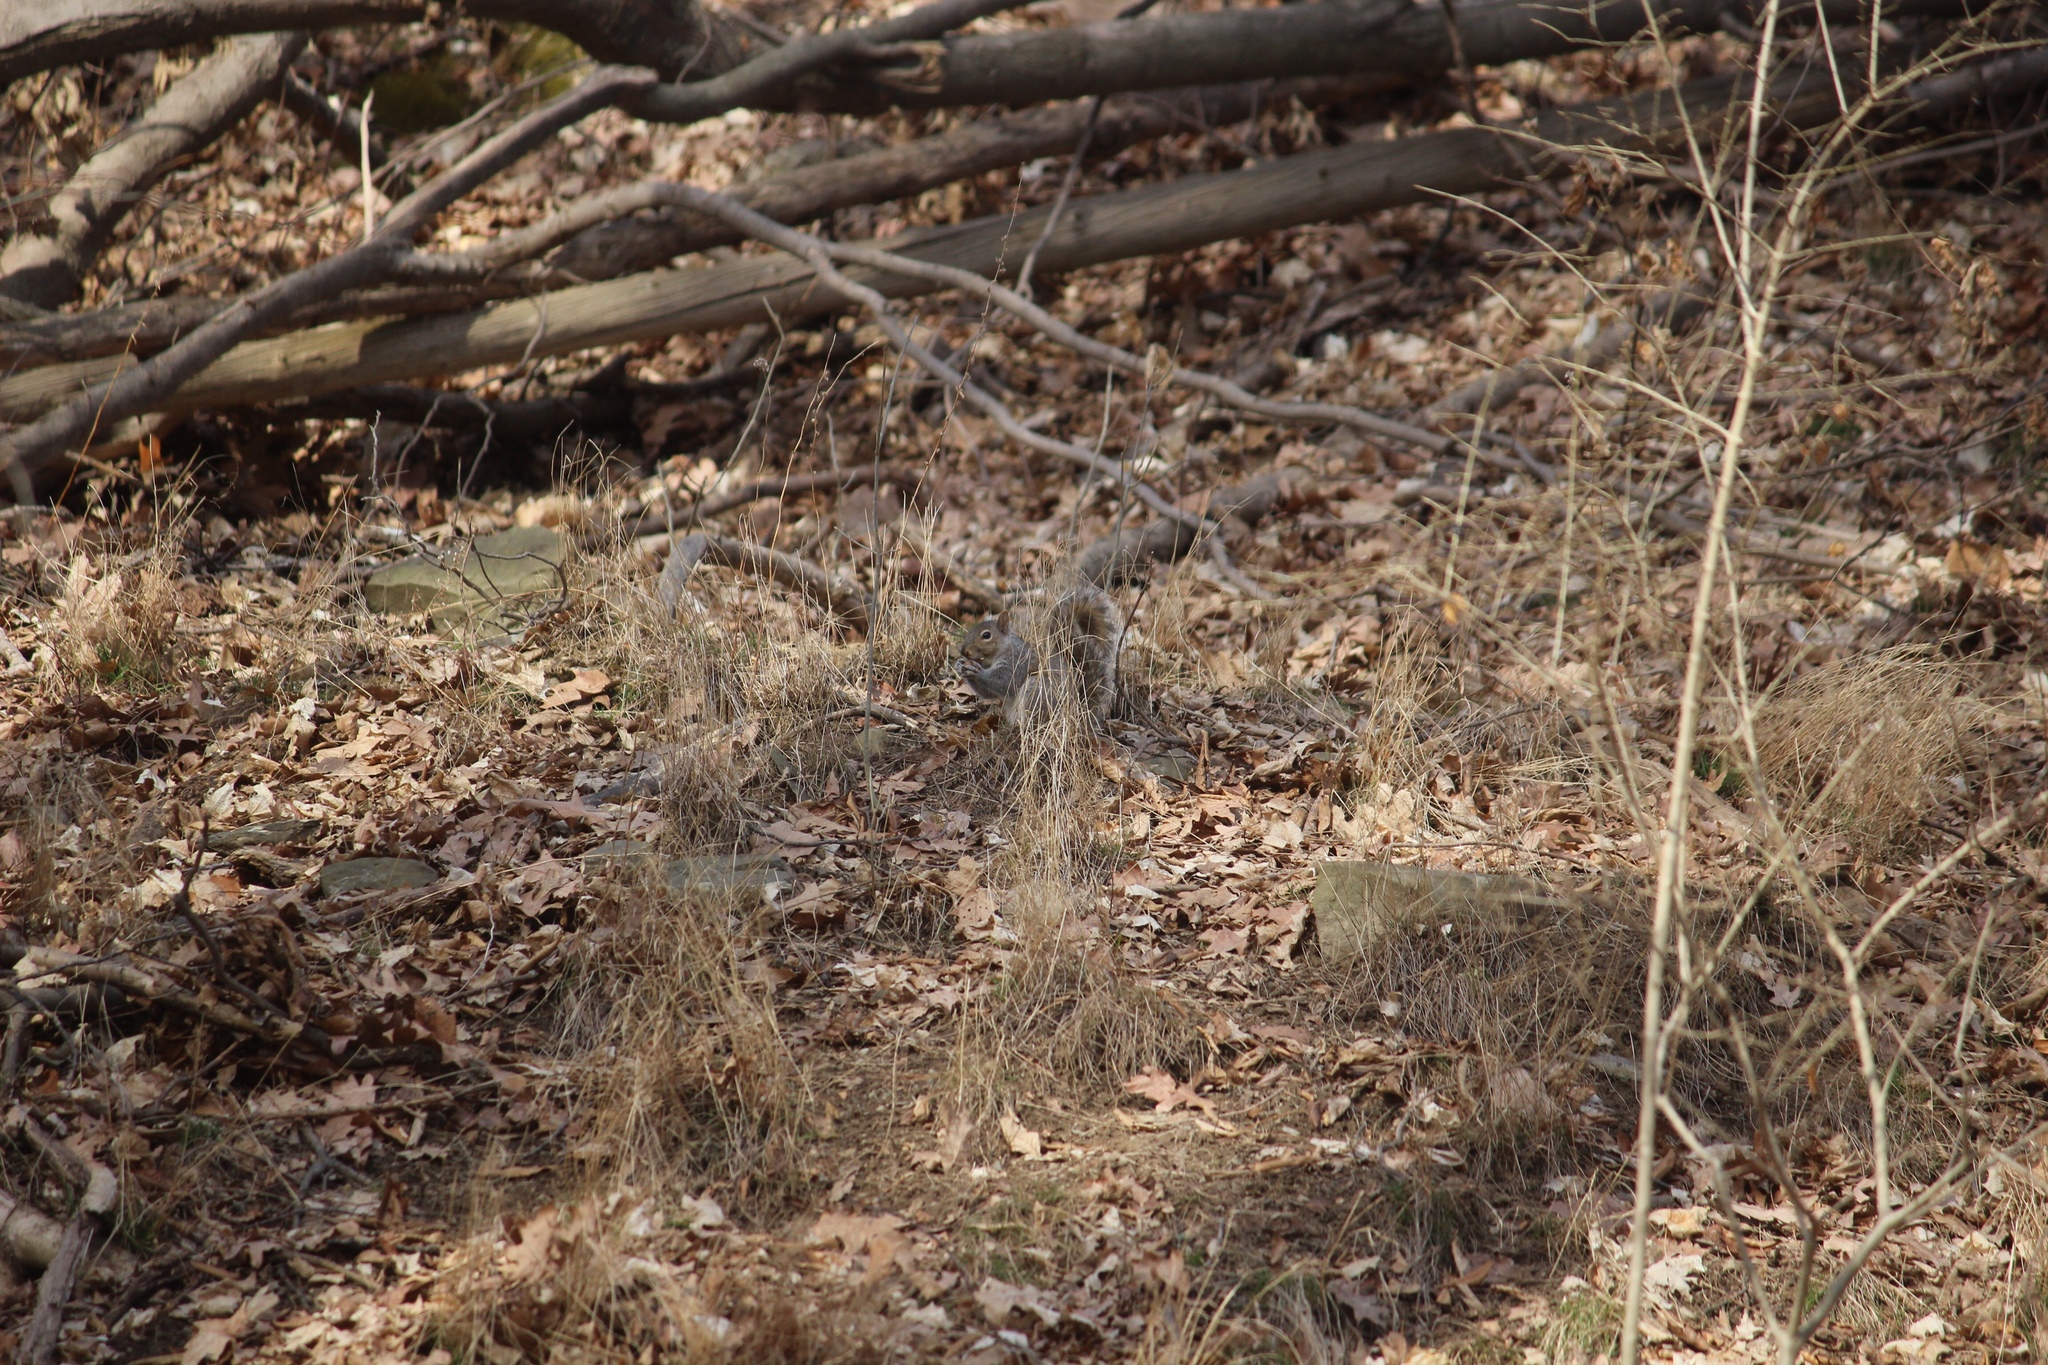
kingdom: Animalia
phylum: Chordata
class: Mammalia
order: Rodentia
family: Sciuridae
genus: Sciurus
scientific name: Sciurus carolinensis
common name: Eastern gray squirrel
